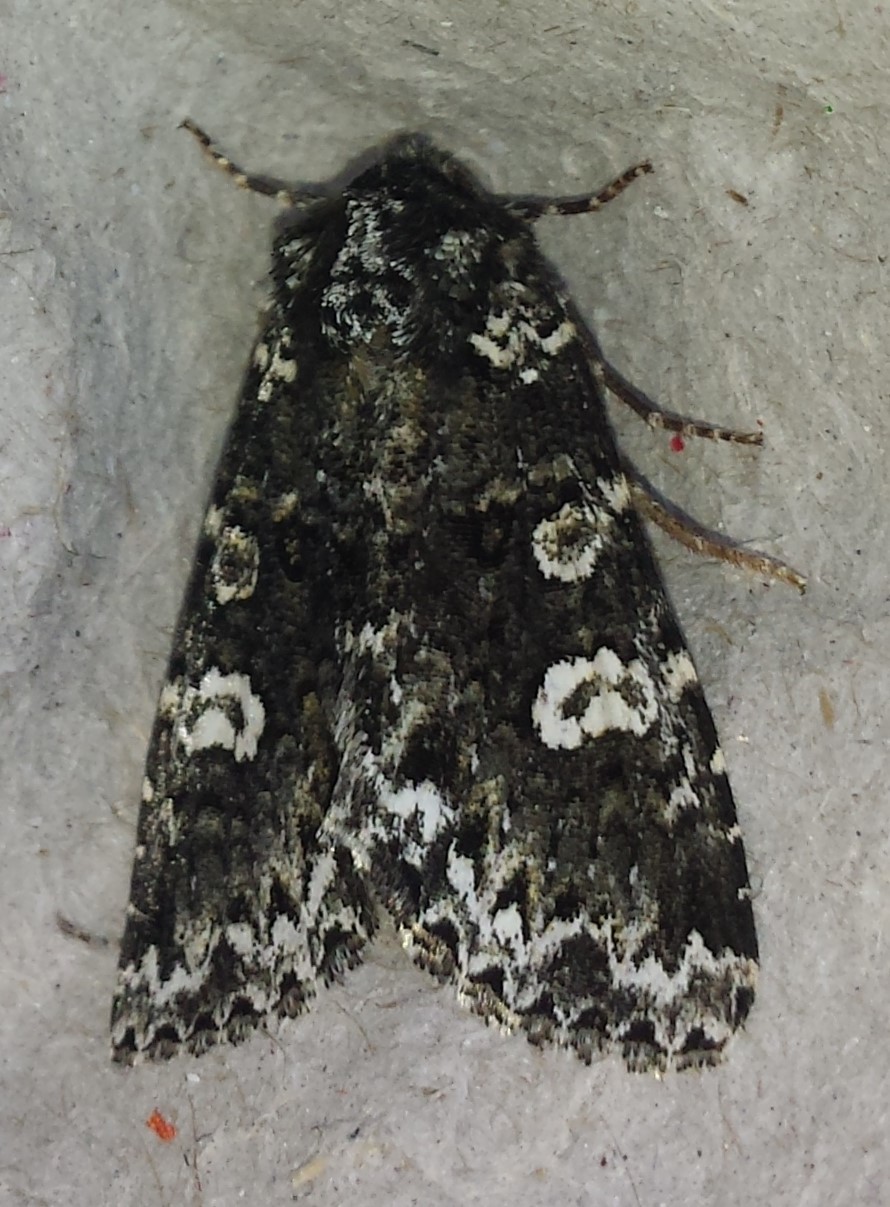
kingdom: Animalia
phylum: Arthropoda
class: Insecta
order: Lepidoptera
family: Noctuidae
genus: Melanchra
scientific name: Melanchra adjuncta
